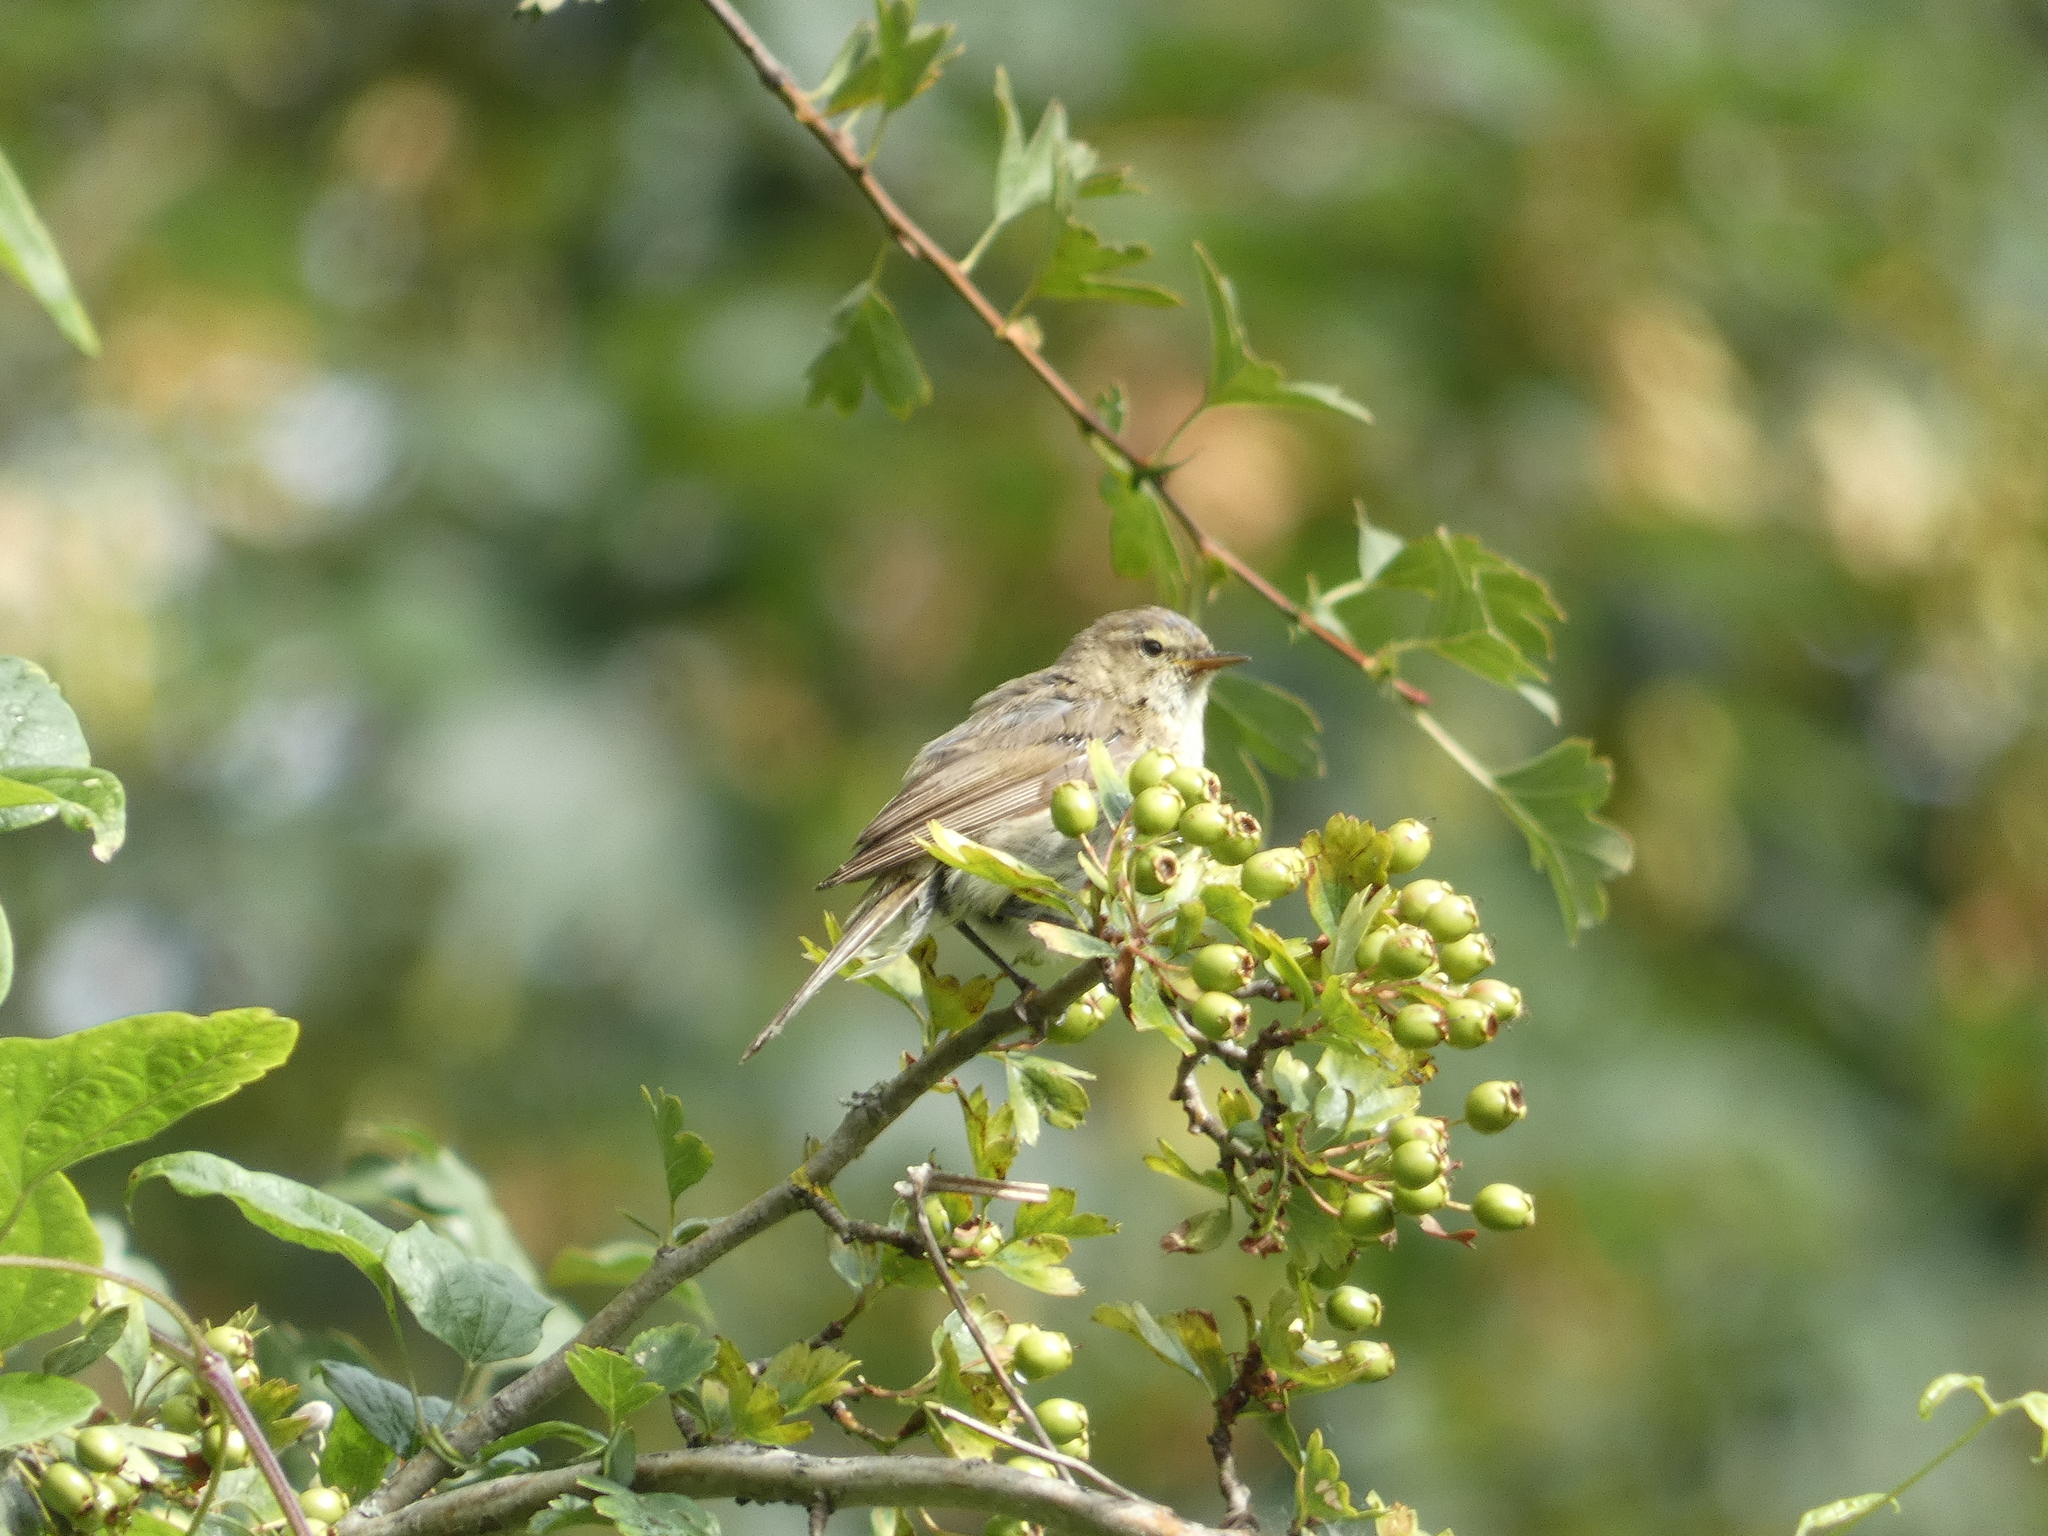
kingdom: Animalia
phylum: Chordata
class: Aves
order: Passeriformes
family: Phylloscopidae
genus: Phylloscopus
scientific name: Phylloscopus collybita
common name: Common chiffchaff
